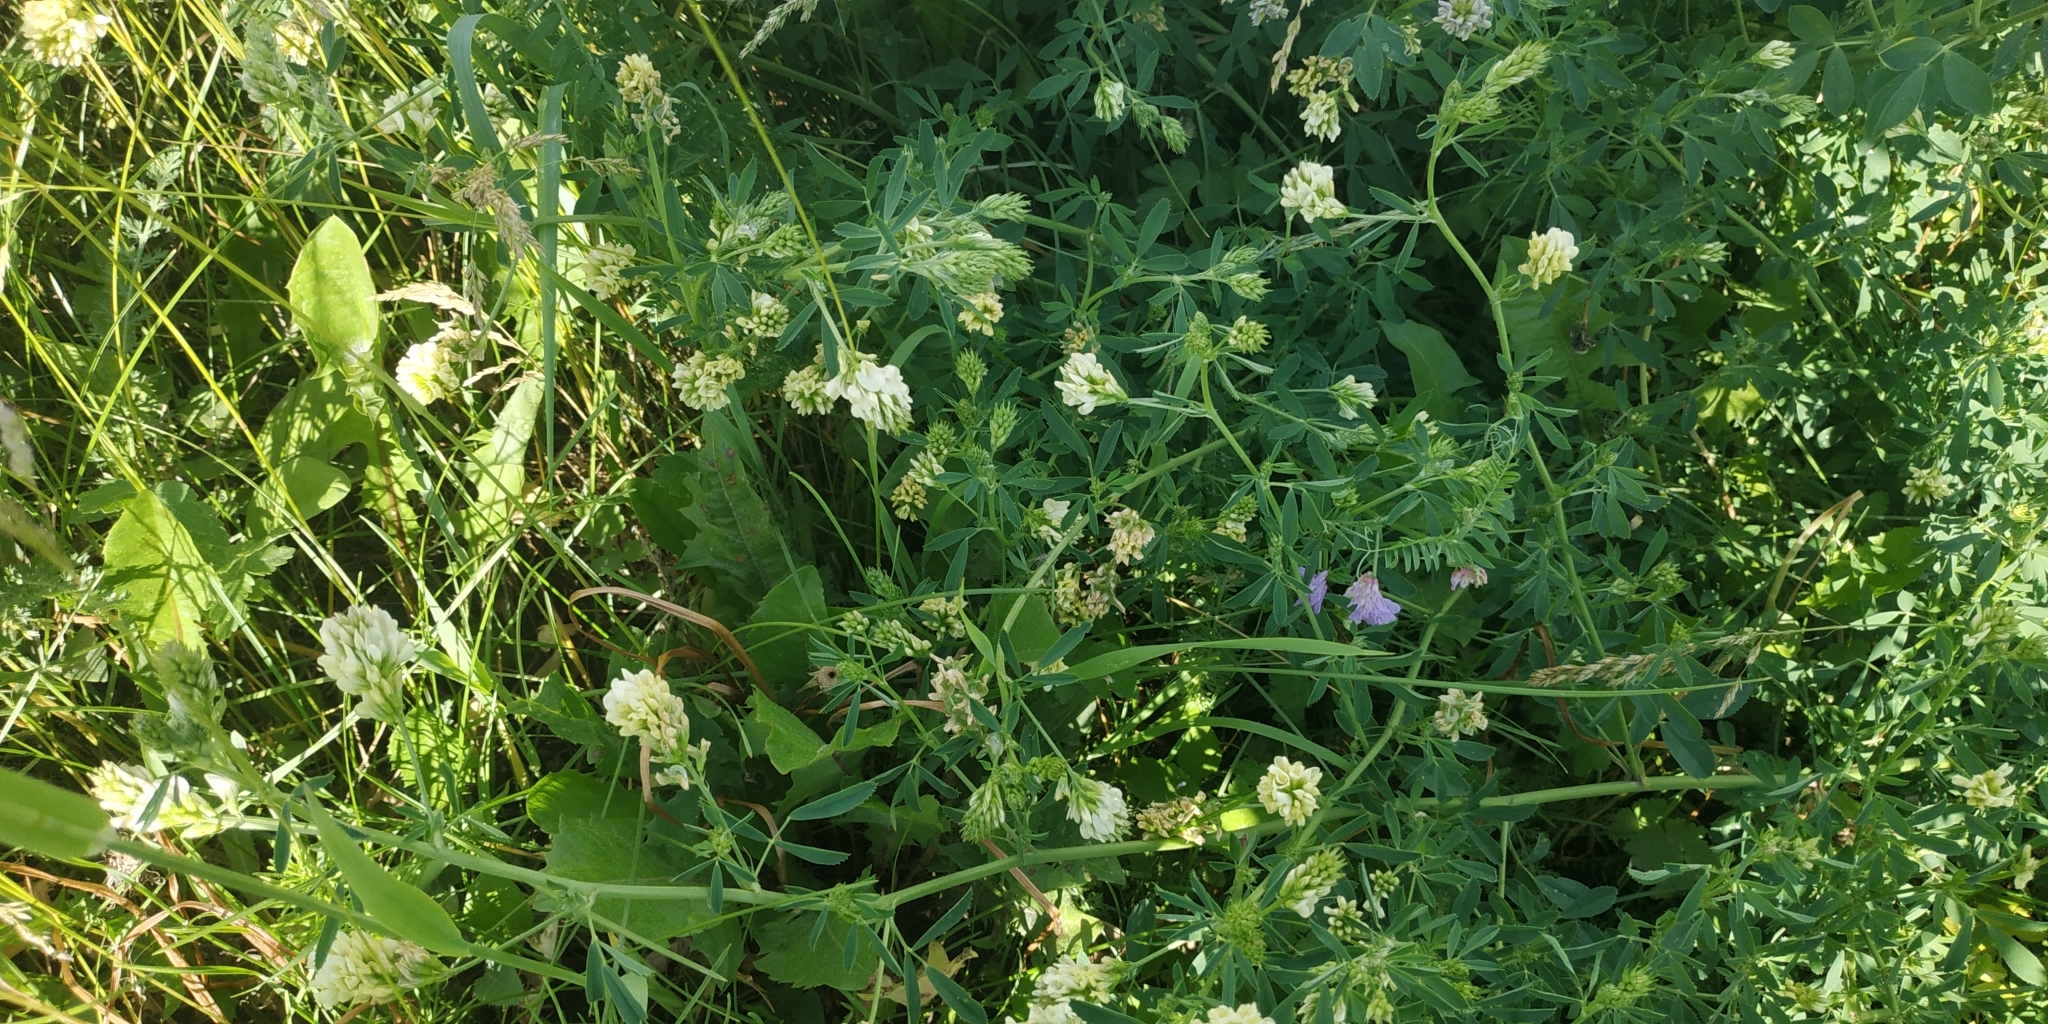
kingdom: Plantae
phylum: Tracheophyta
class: Magnoliopsida
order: Fabales
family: Fabaceae
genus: Medicago
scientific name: Medicago varia
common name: Sand lucerne
